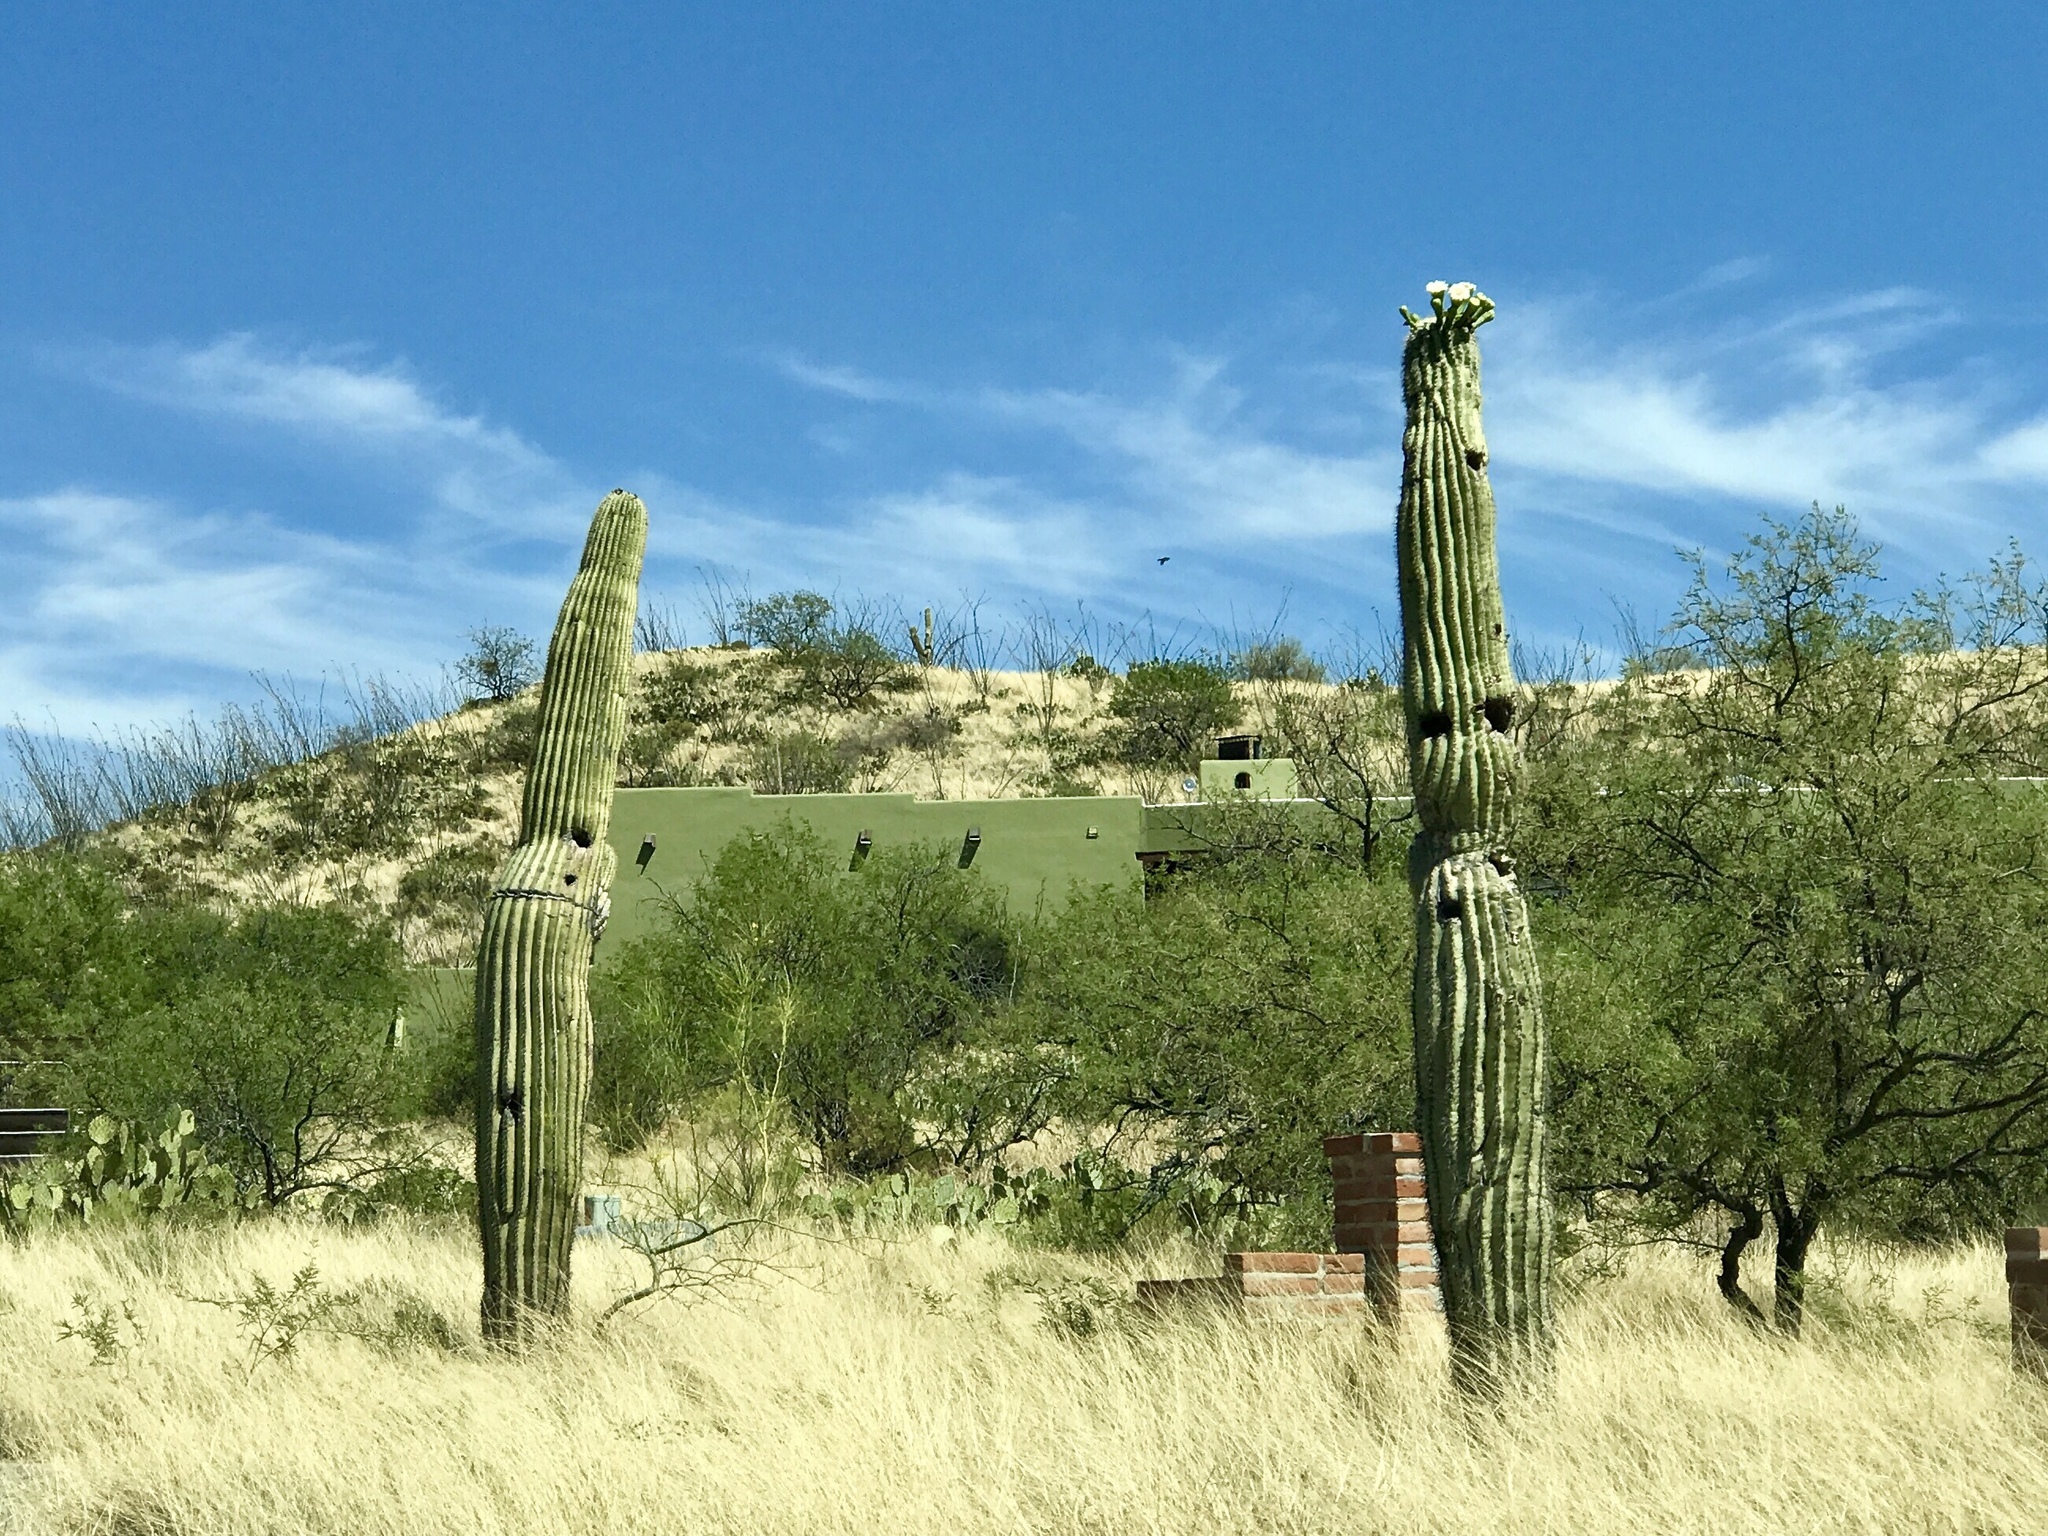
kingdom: Plantae
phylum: Tracheophyta
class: Magnoliopsida
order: Caryophyllales
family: Cactaceae
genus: Carnegiea
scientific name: Carnegiea gigantea
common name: Saguaro
